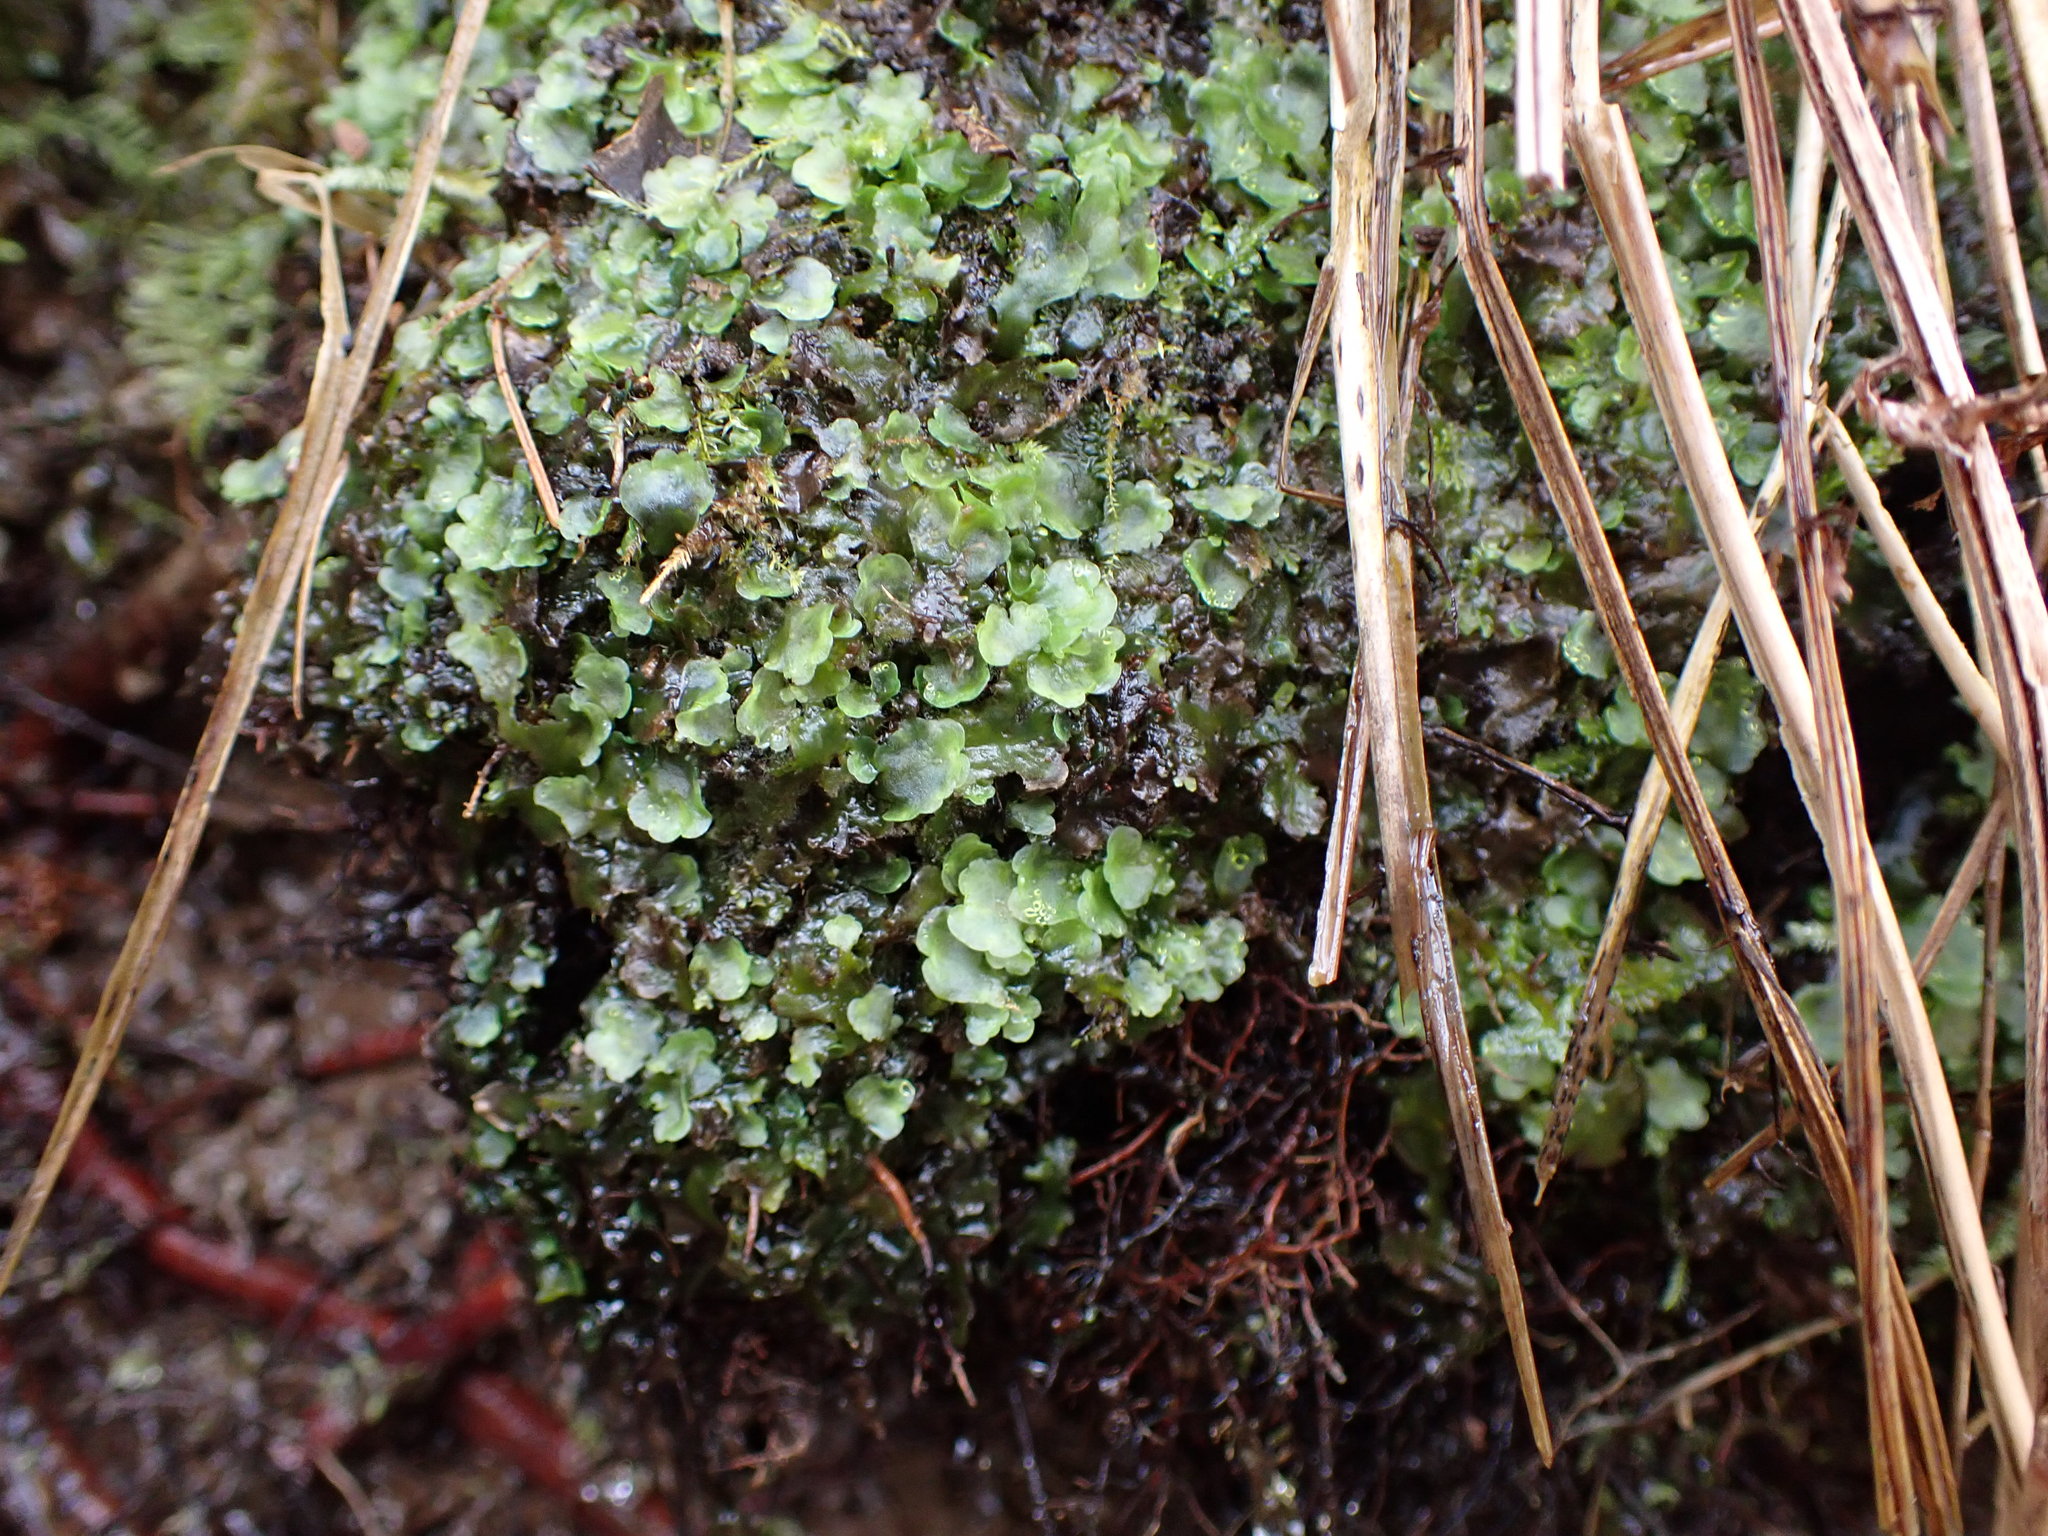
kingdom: Plantae
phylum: Marchantiophyta
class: Jungermanniopsida
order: Pelliales
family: Pelliaceae
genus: Pellia
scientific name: Pellia neesiana
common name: Nees  pellia
